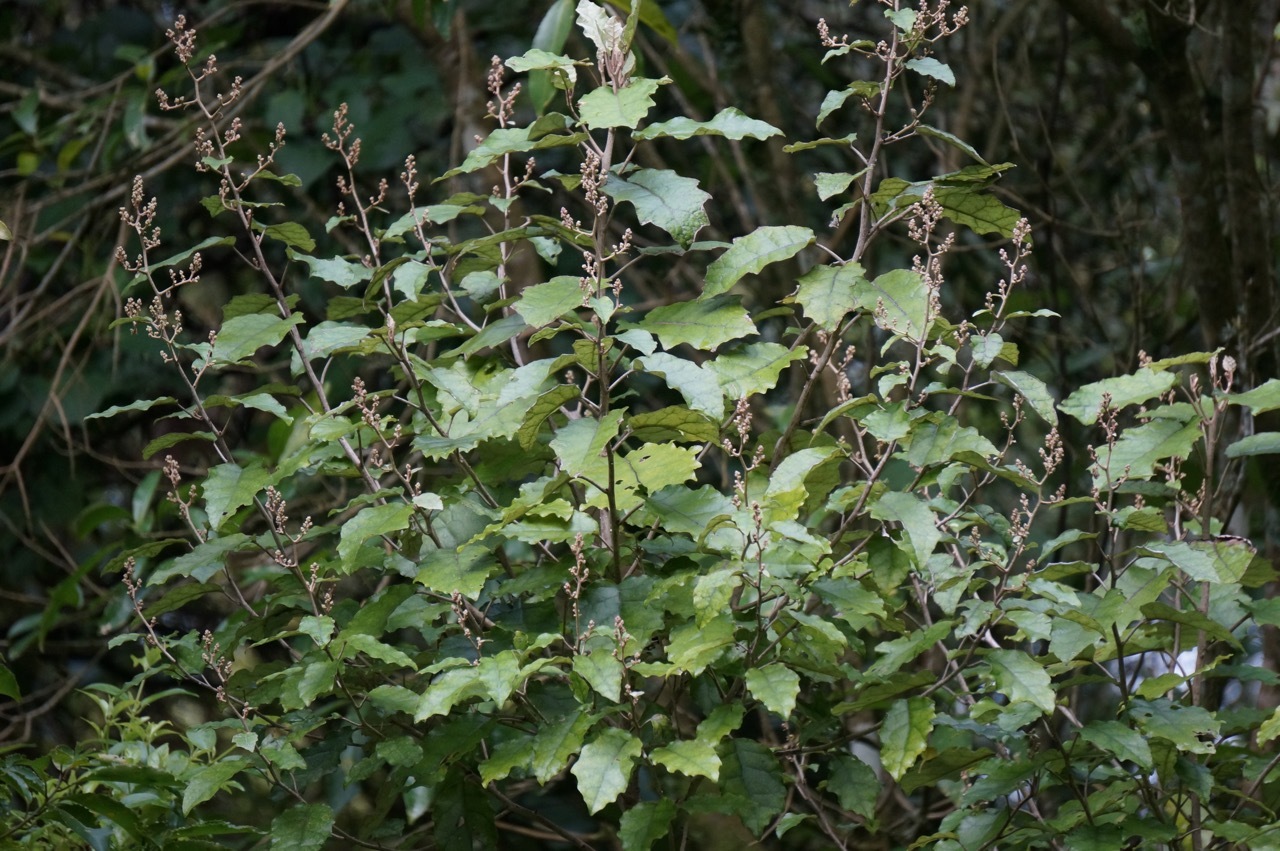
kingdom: Plantae
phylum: Tracheophyta
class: Magnoliopsida
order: Asterales
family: Asteraceae
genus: Brachyglottis
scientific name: Brachyglottis repanda
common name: Hedge ragwort
